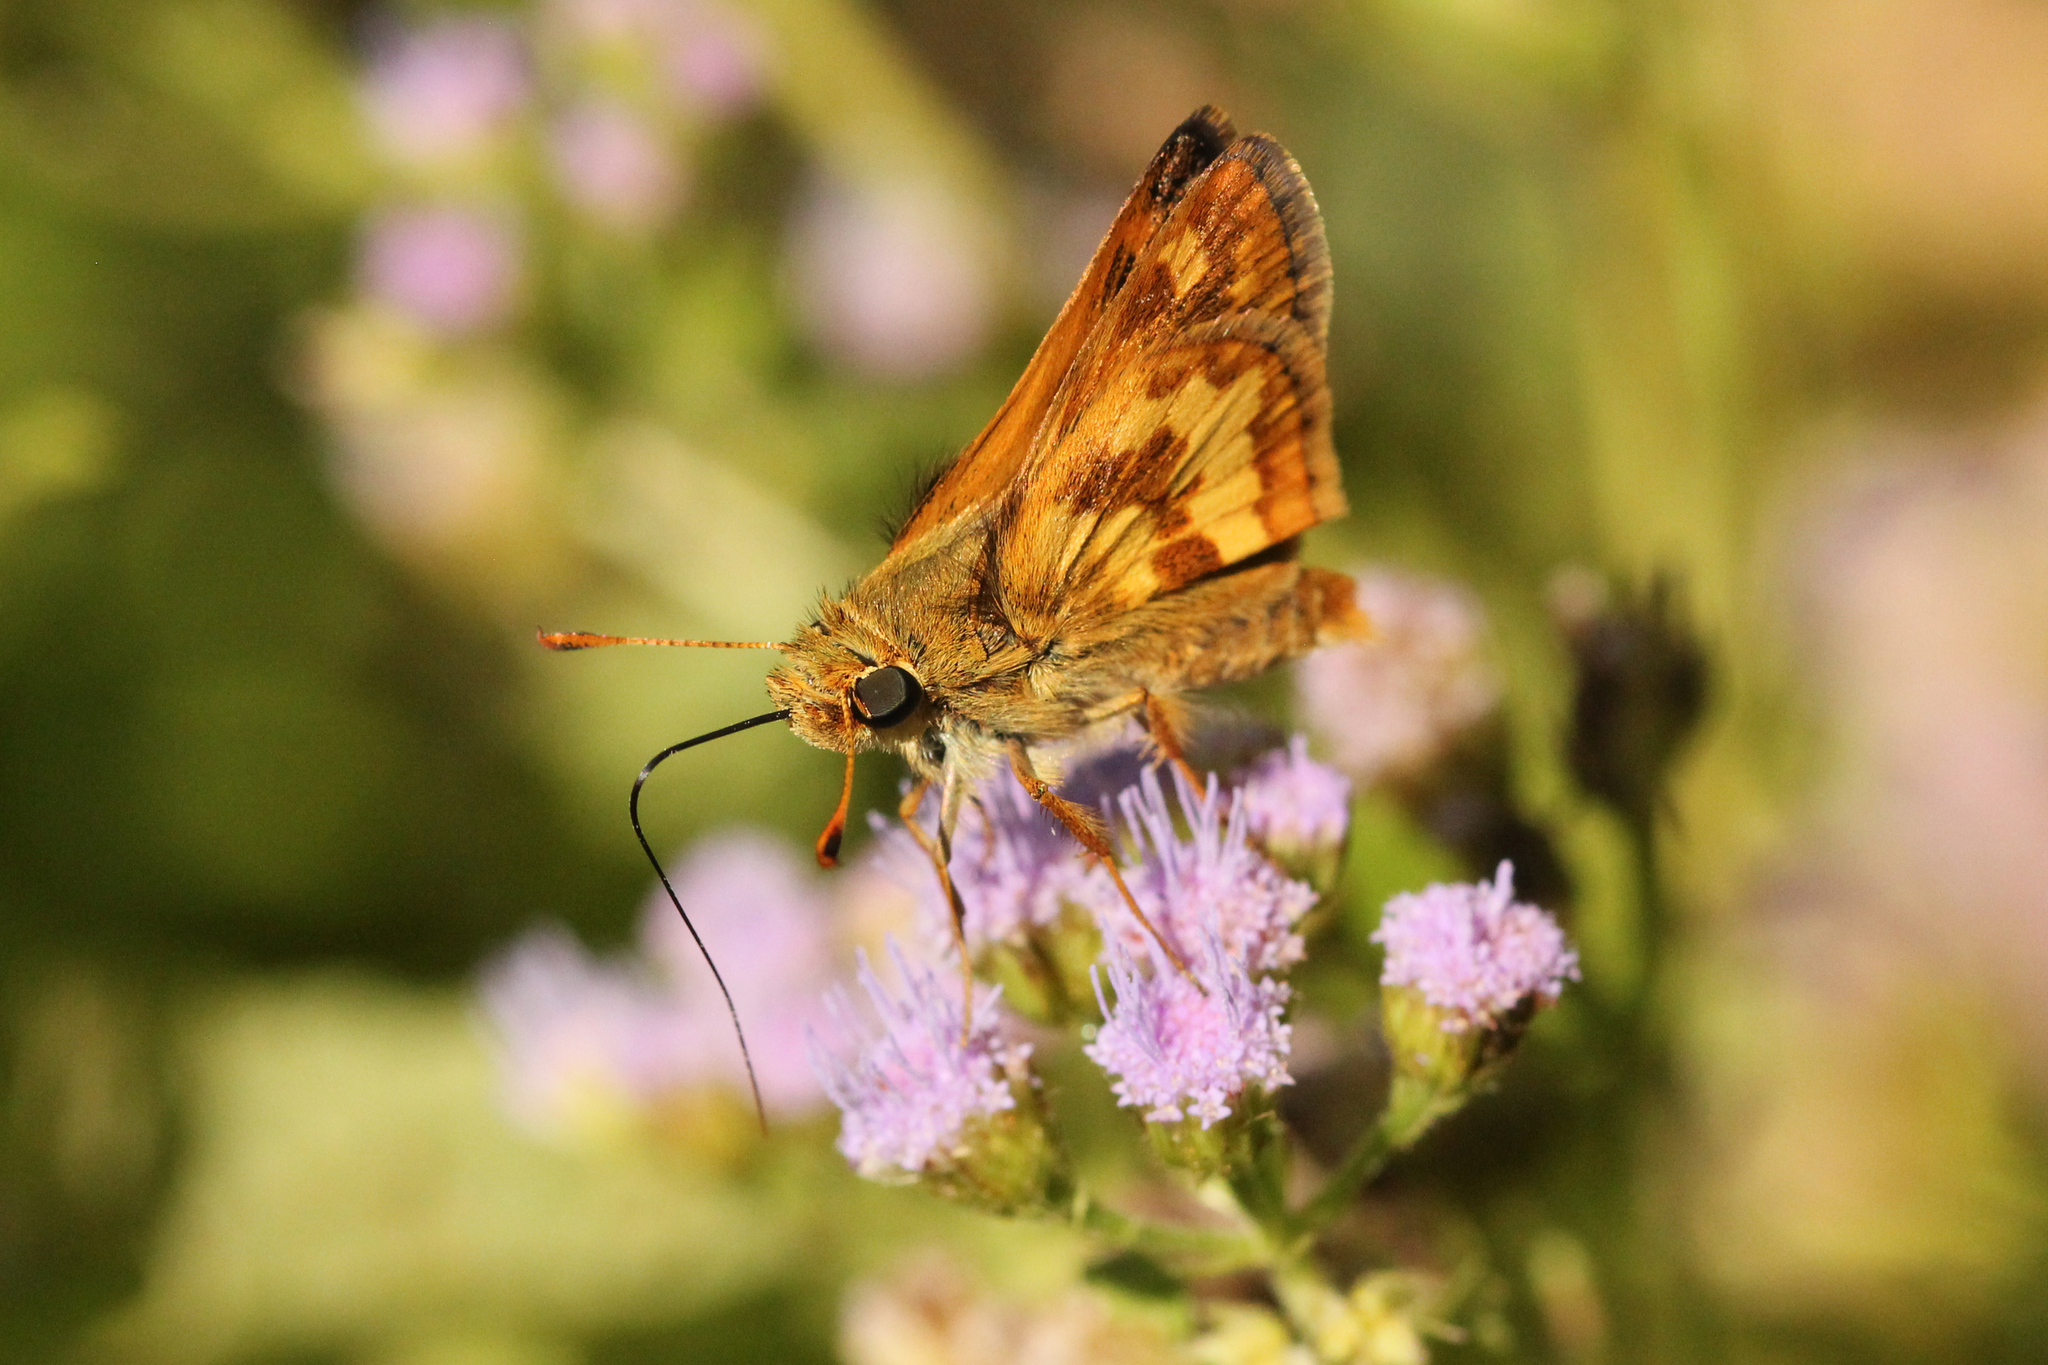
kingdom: Animalia
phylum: Arthropoda
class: Insecta
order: Lepidoptera
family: Hesperiidae
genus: Polites
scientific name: Polites coras
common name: Peck's skipper
